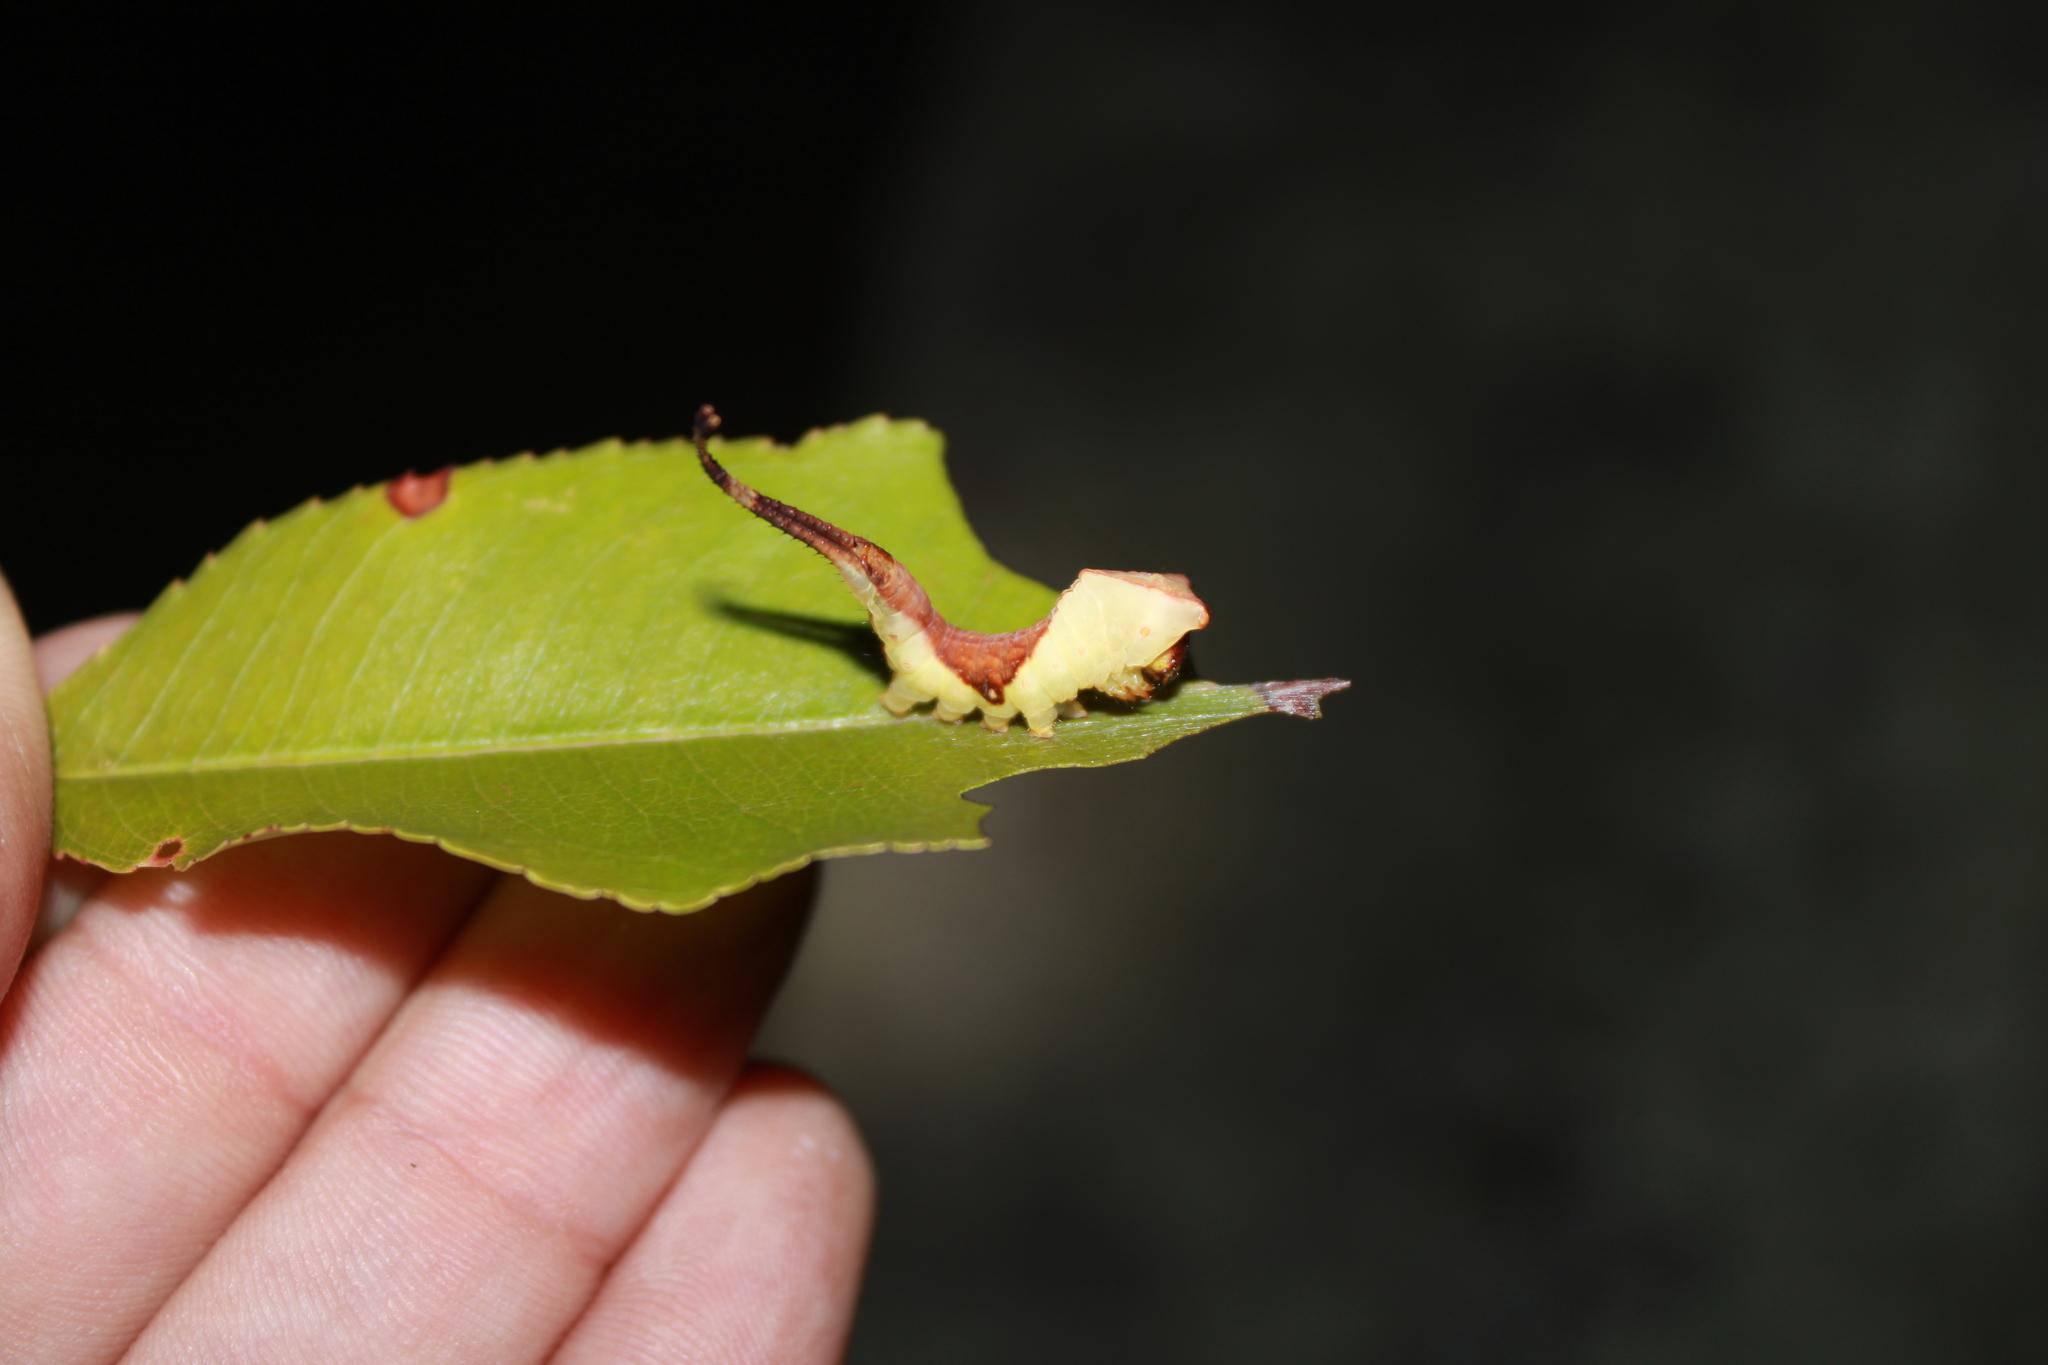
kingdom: Animalia
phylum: Arthropoda
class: Insecta
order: Lepidoptera
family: Notodontidae
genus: Furcula
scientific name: Furcula borealis
